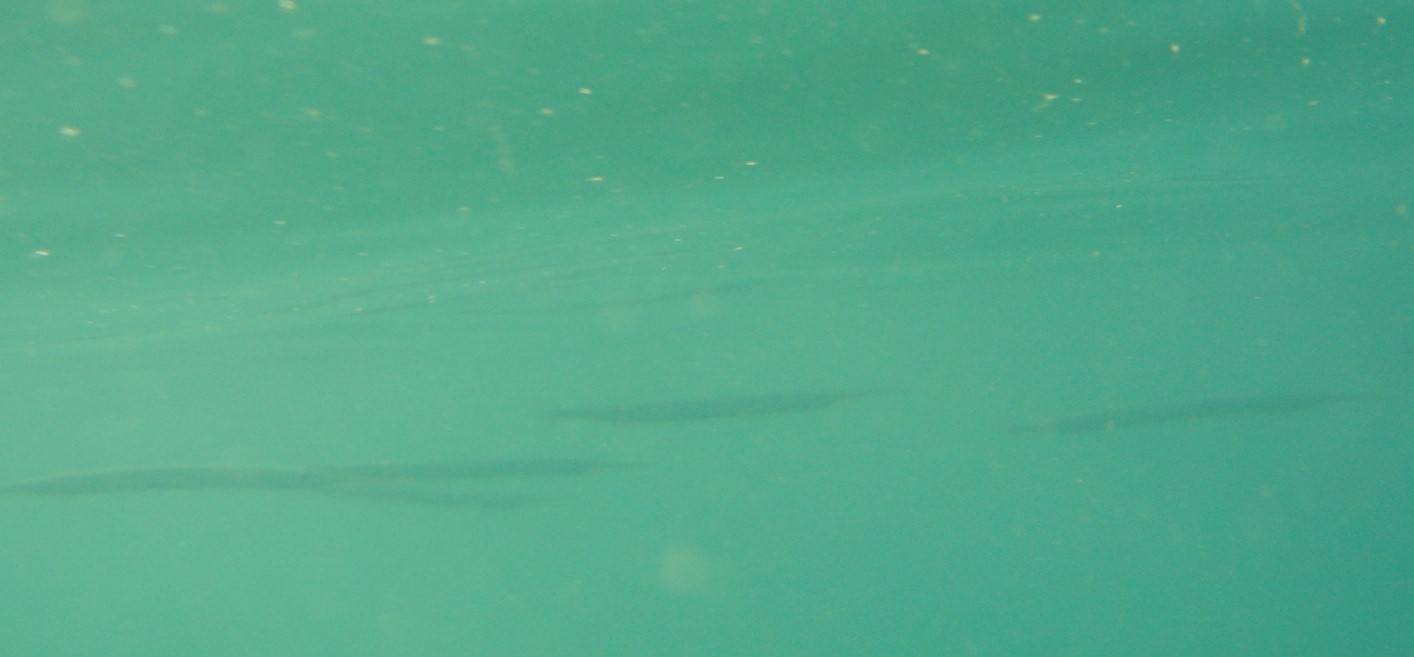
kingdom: Animalia
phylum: Chordata
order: Beloniformes
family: Belonidae
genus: Belone
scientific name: Belone belone
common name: Garfish
